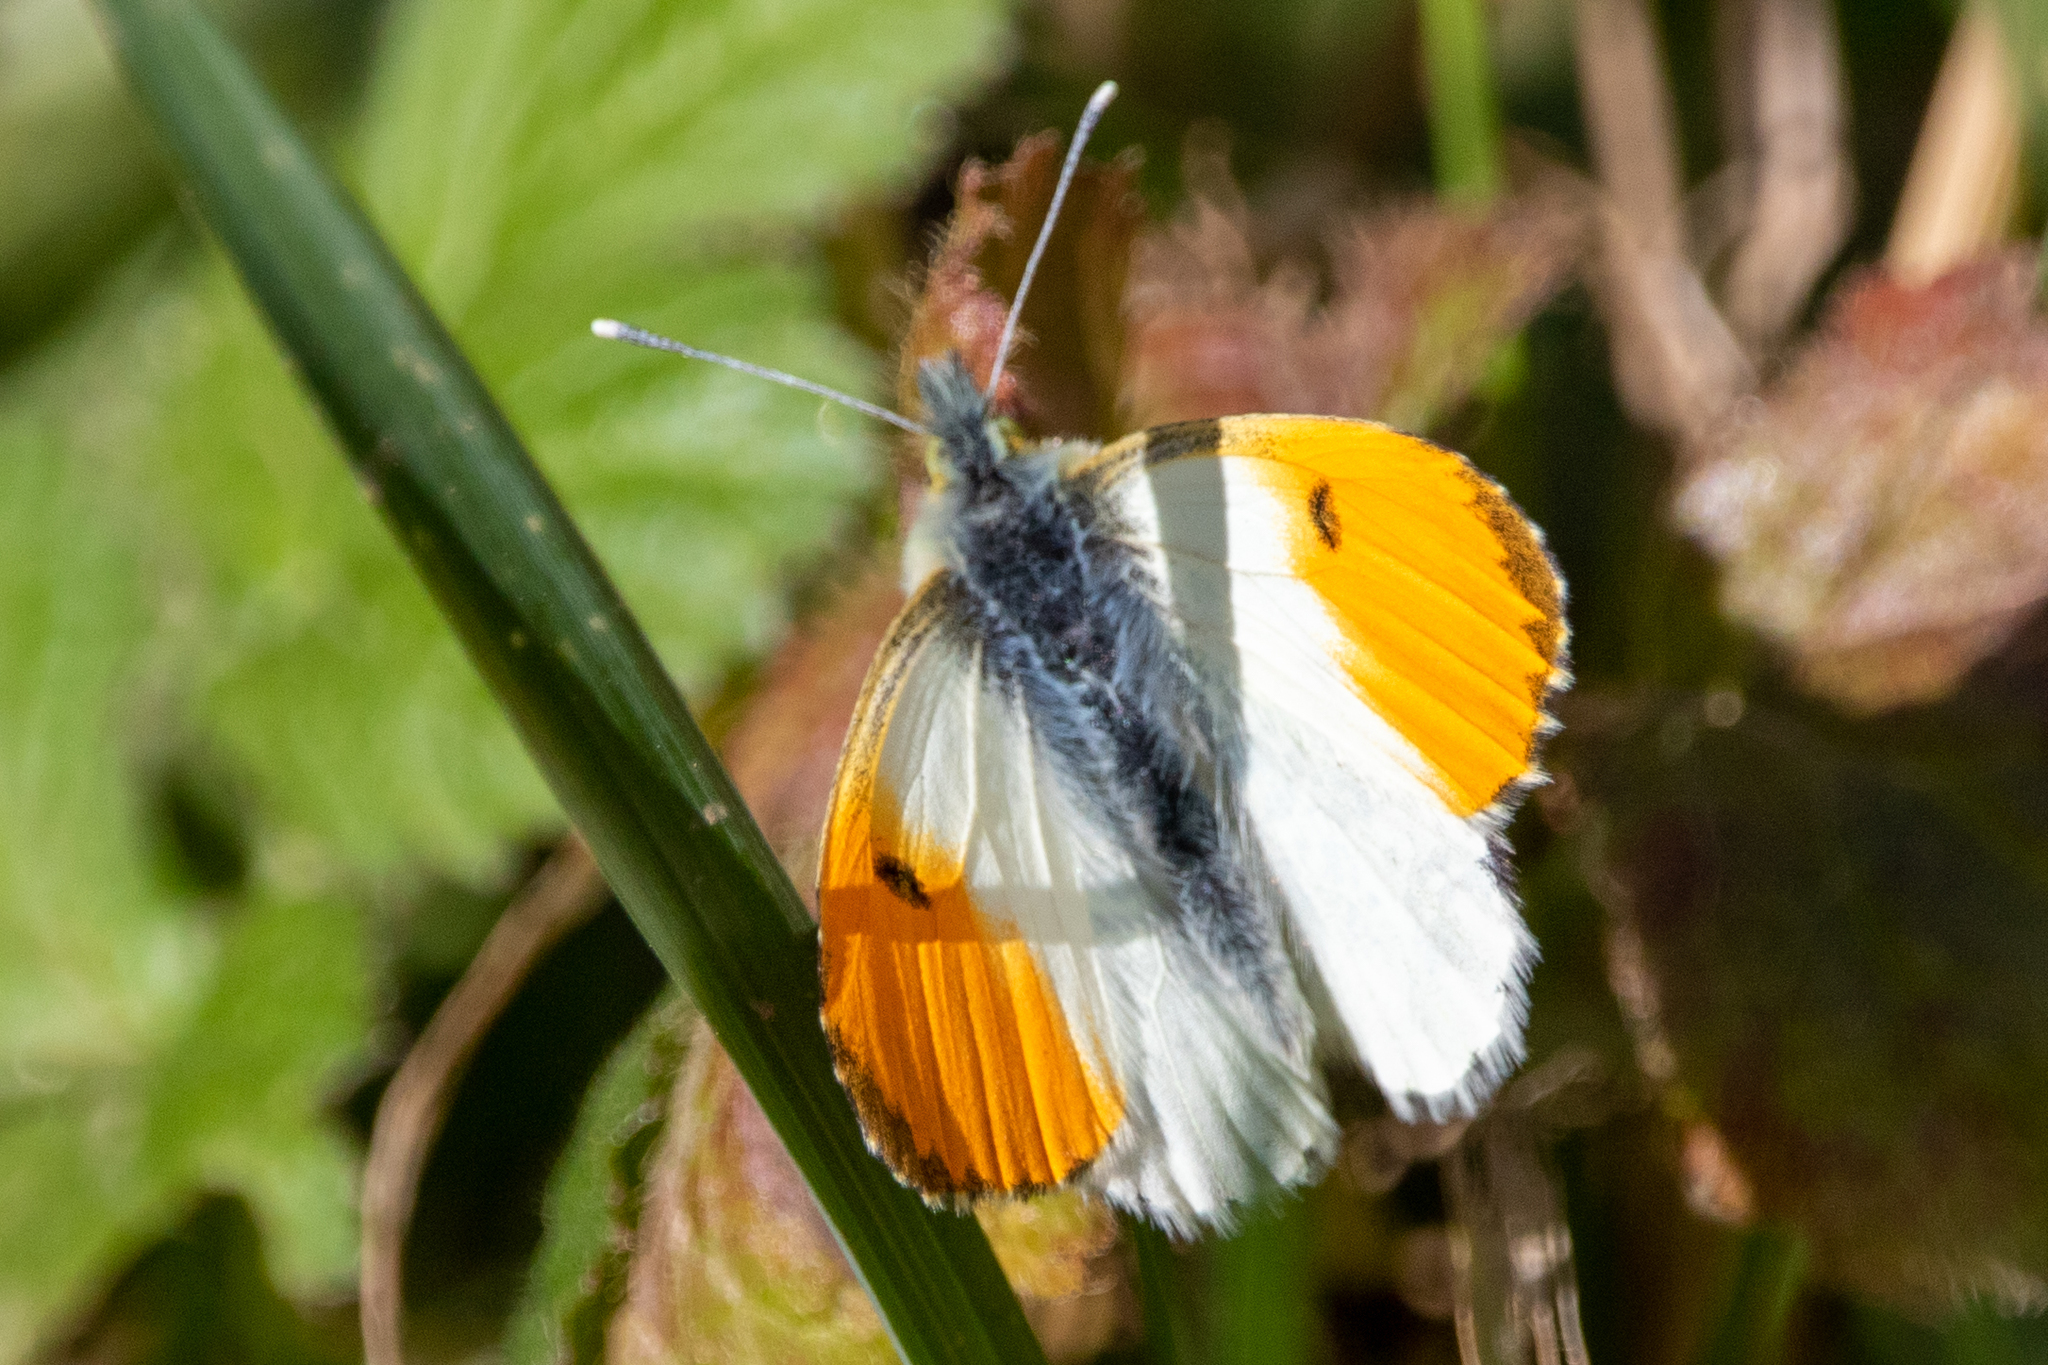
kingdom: Animalia
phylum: Arthropoda
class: Insecta
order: Lepidoptera
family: Pieridae
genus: Anthocharis
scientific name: Anthocharis cardamines
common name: Orange-tip
